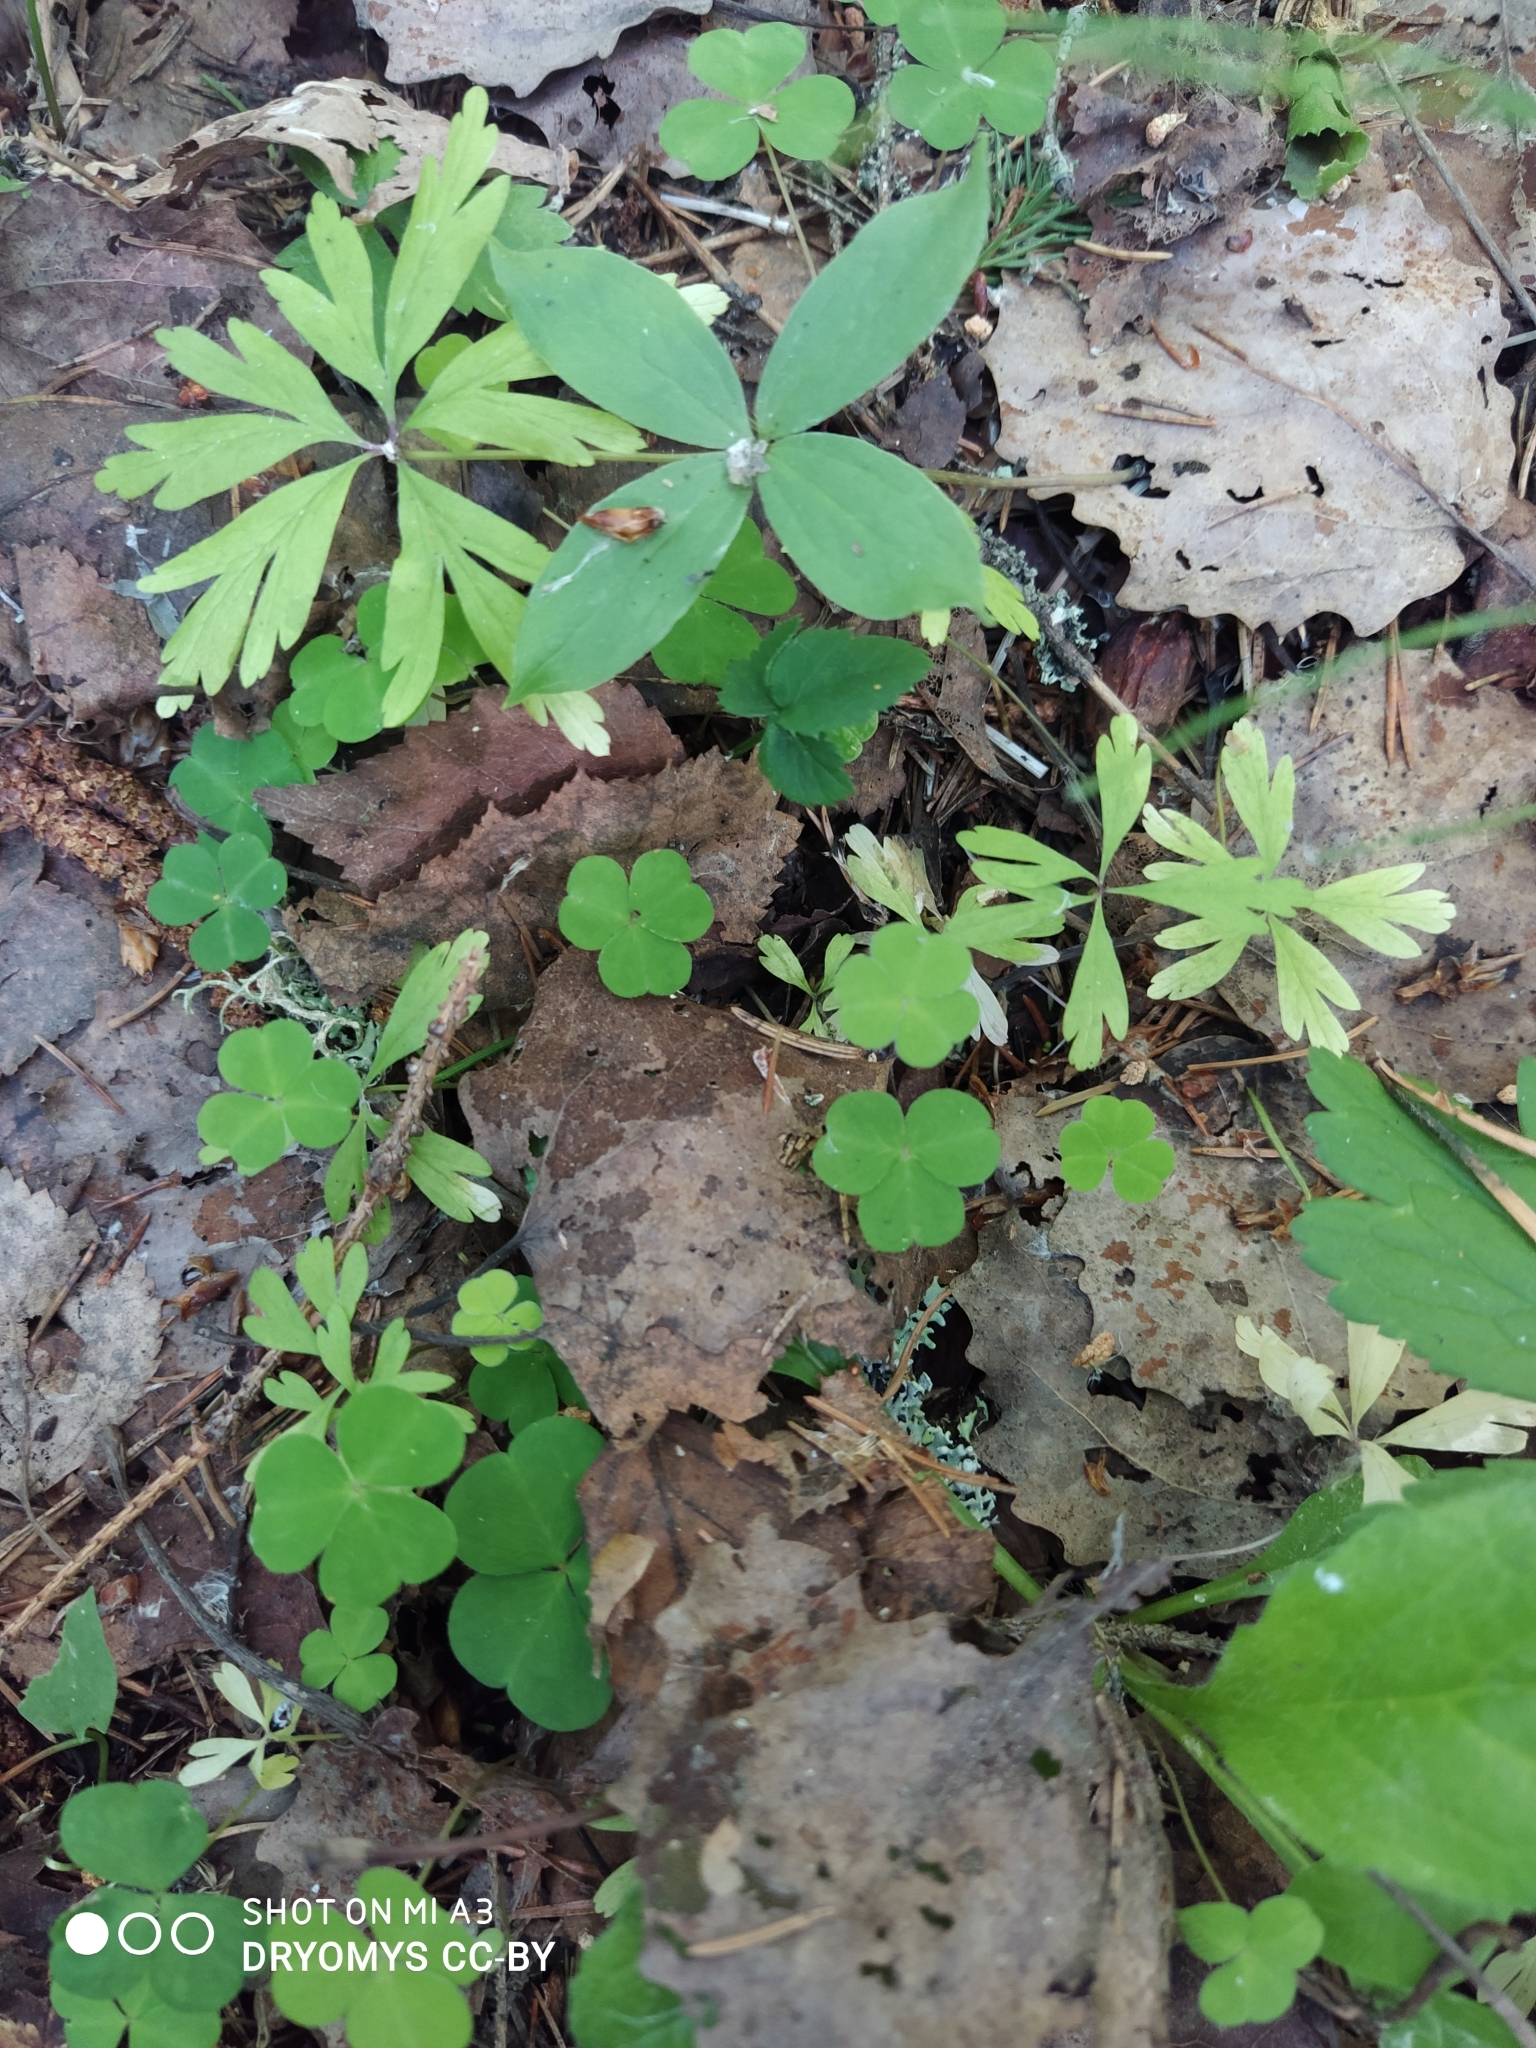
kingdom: Plantae
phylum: Tracheophyta
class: Magnoliopsida
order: Ranunculales
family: Ranunculaceae
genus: Anemone
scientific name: Anemone ranunculoides
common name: Yellow anemone
